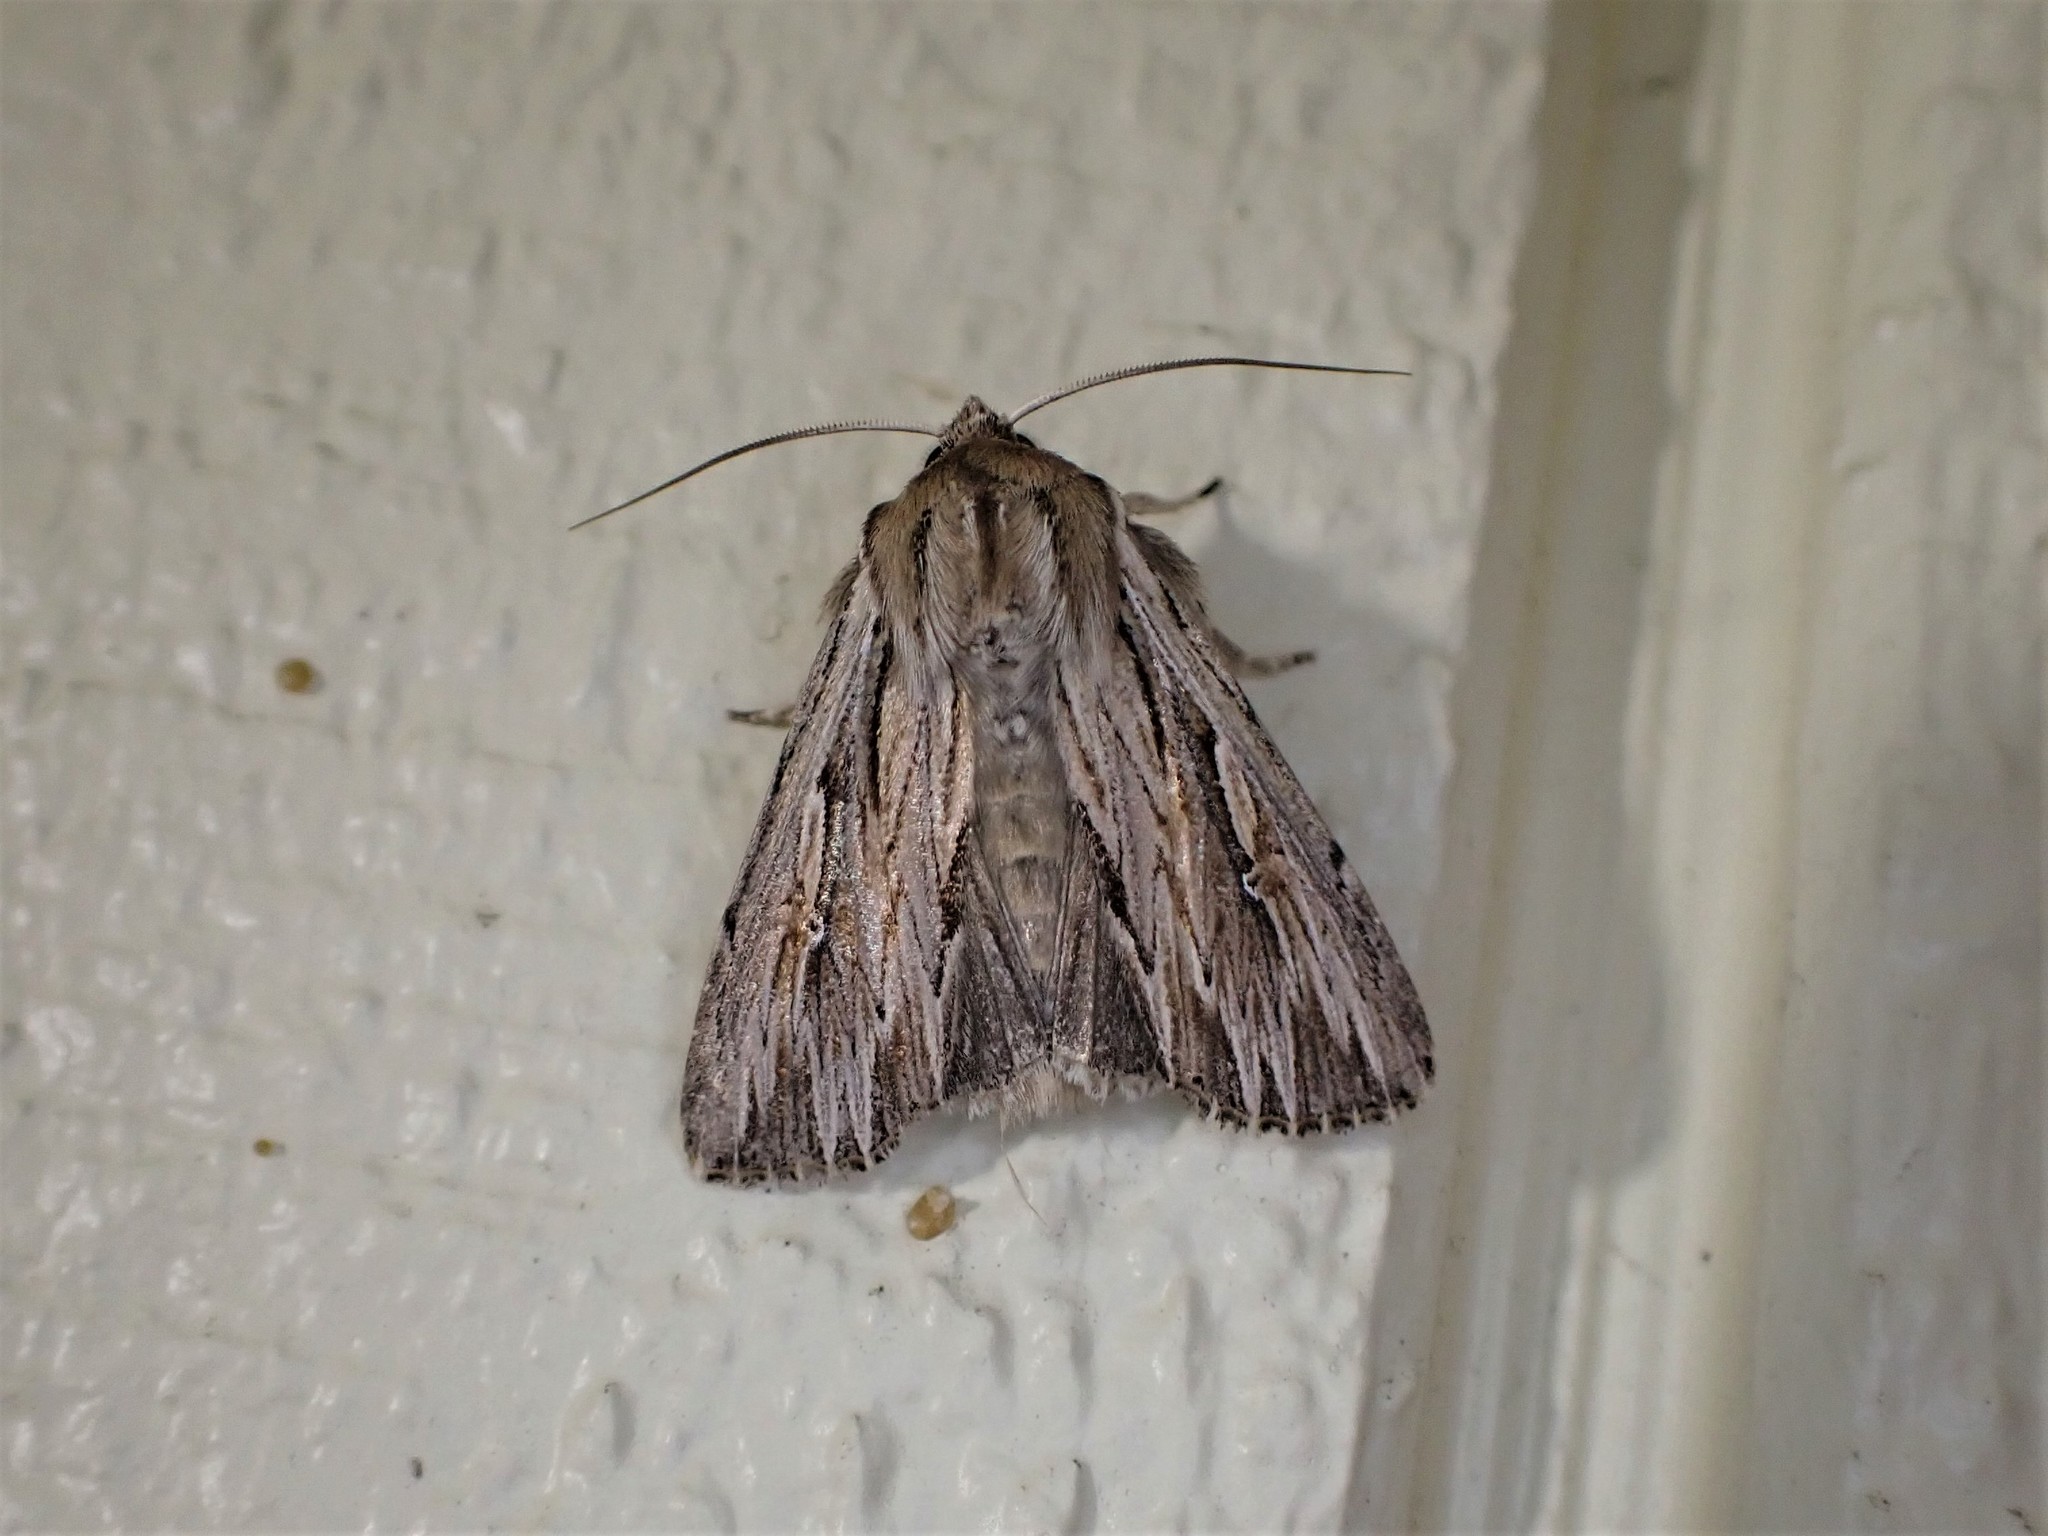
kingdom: Animalia
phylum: Arthropoda
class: Insecta
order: Lepidoptera
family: Noctuidae
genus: Persectania
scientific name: Persectania aversa
